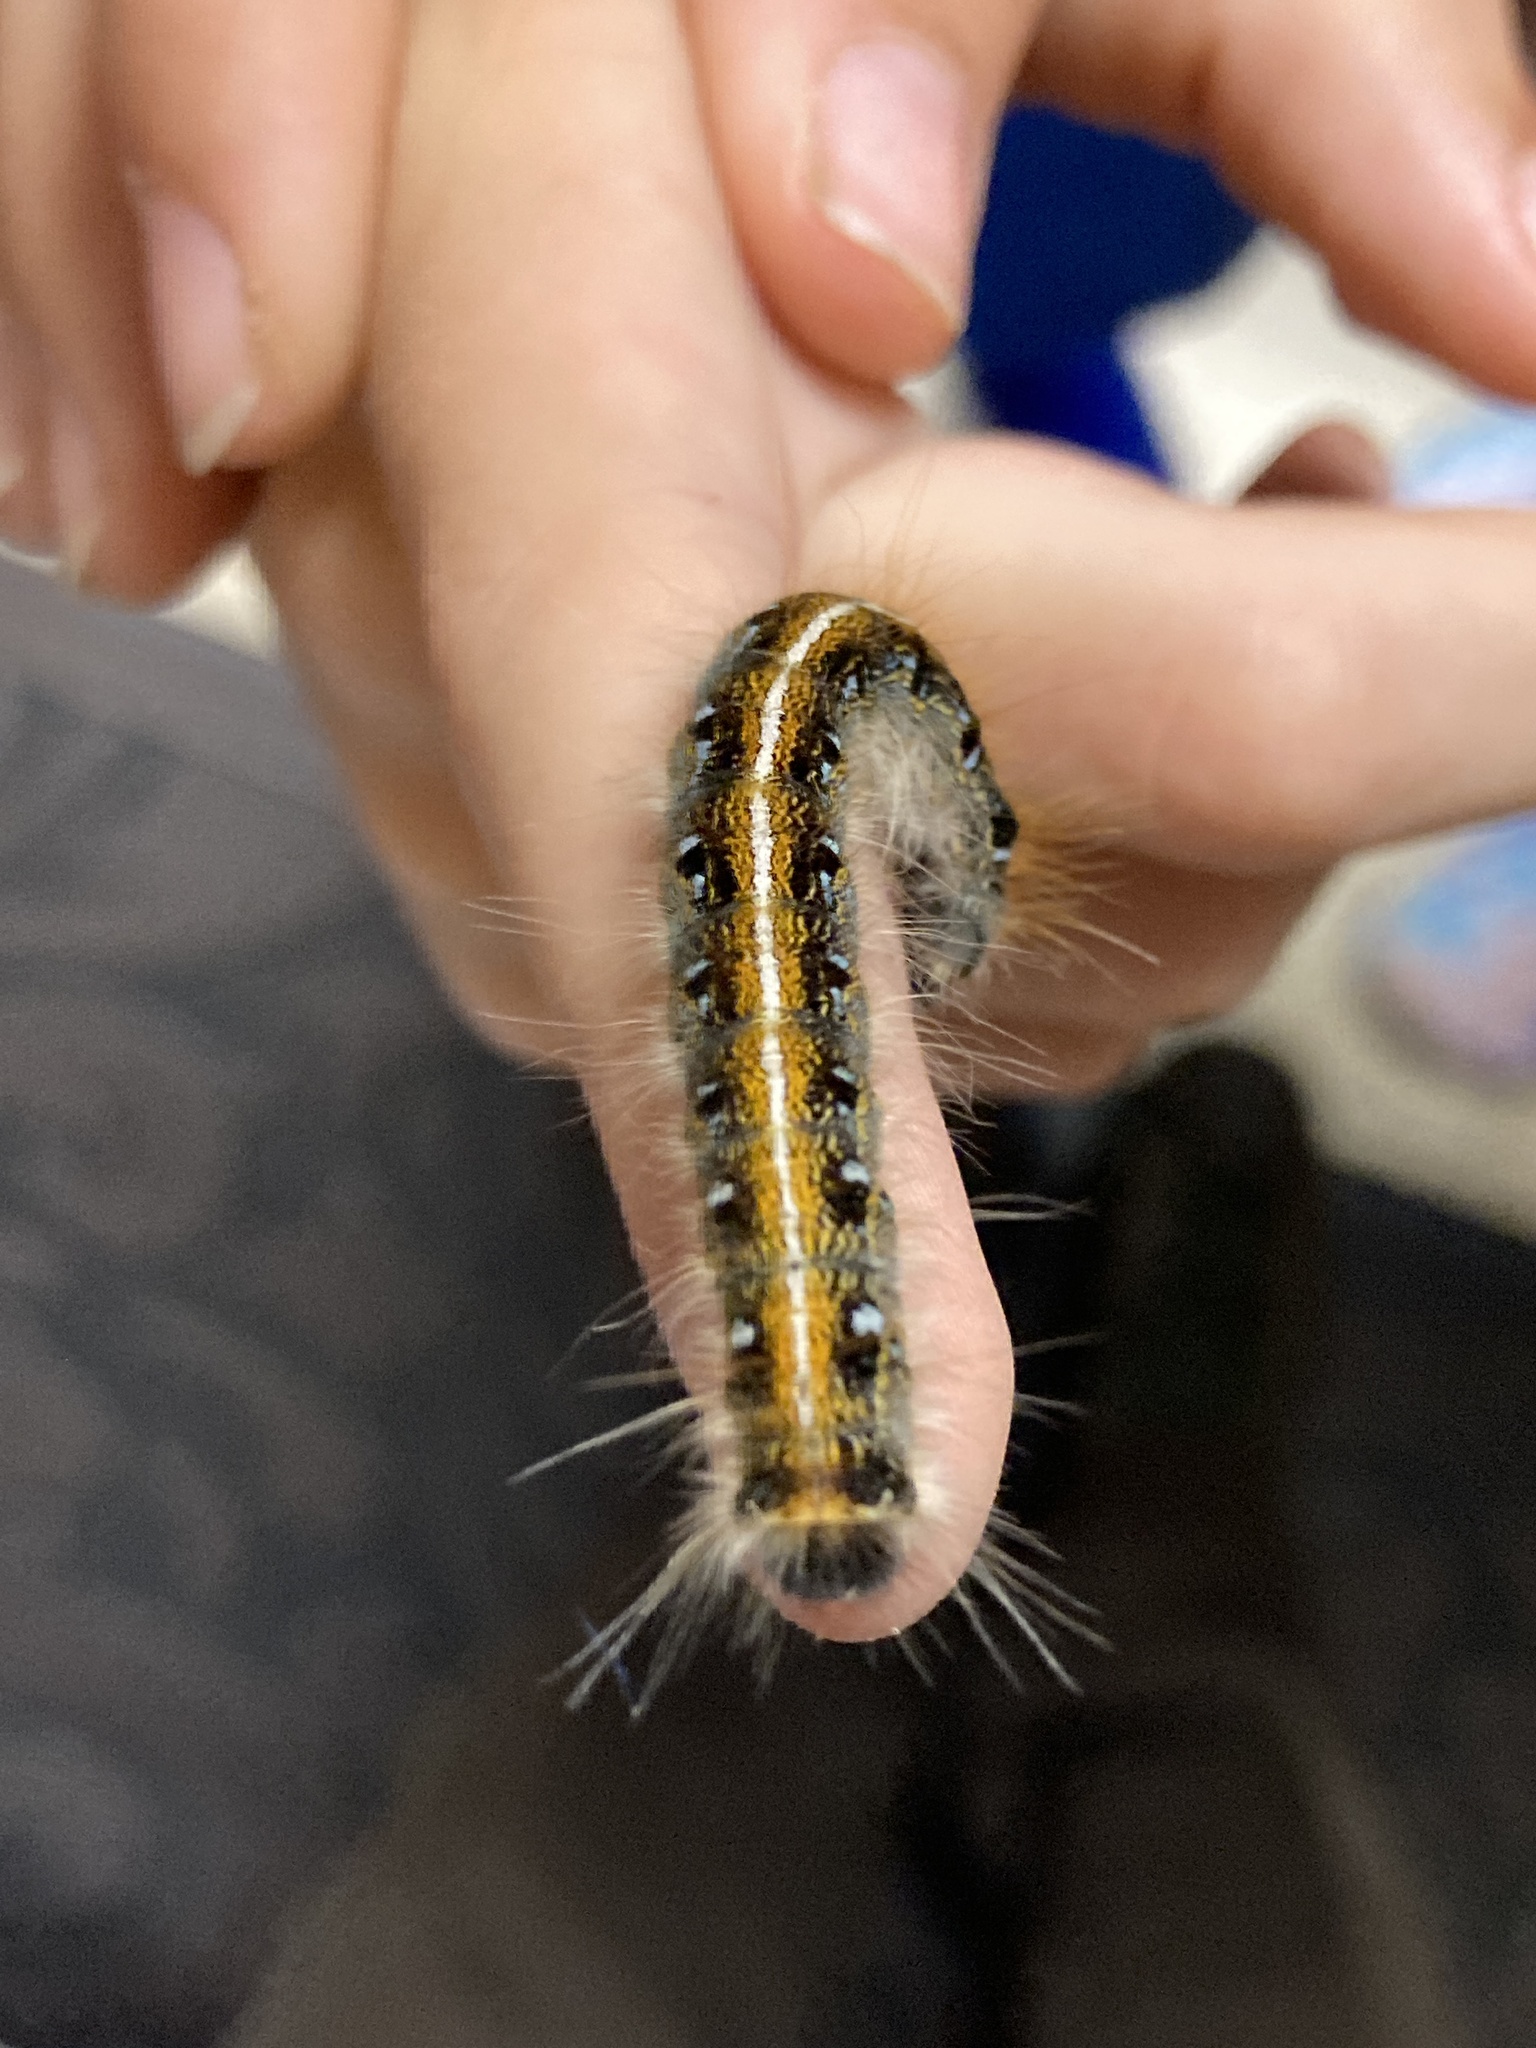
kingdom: Animalia
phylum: Arthropoda
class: Insecta
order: Lepidoptera
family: Lasiocampidae
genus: Malacosoma
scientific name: Malacosoma americana
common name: Eastern tent caterpillar moth
